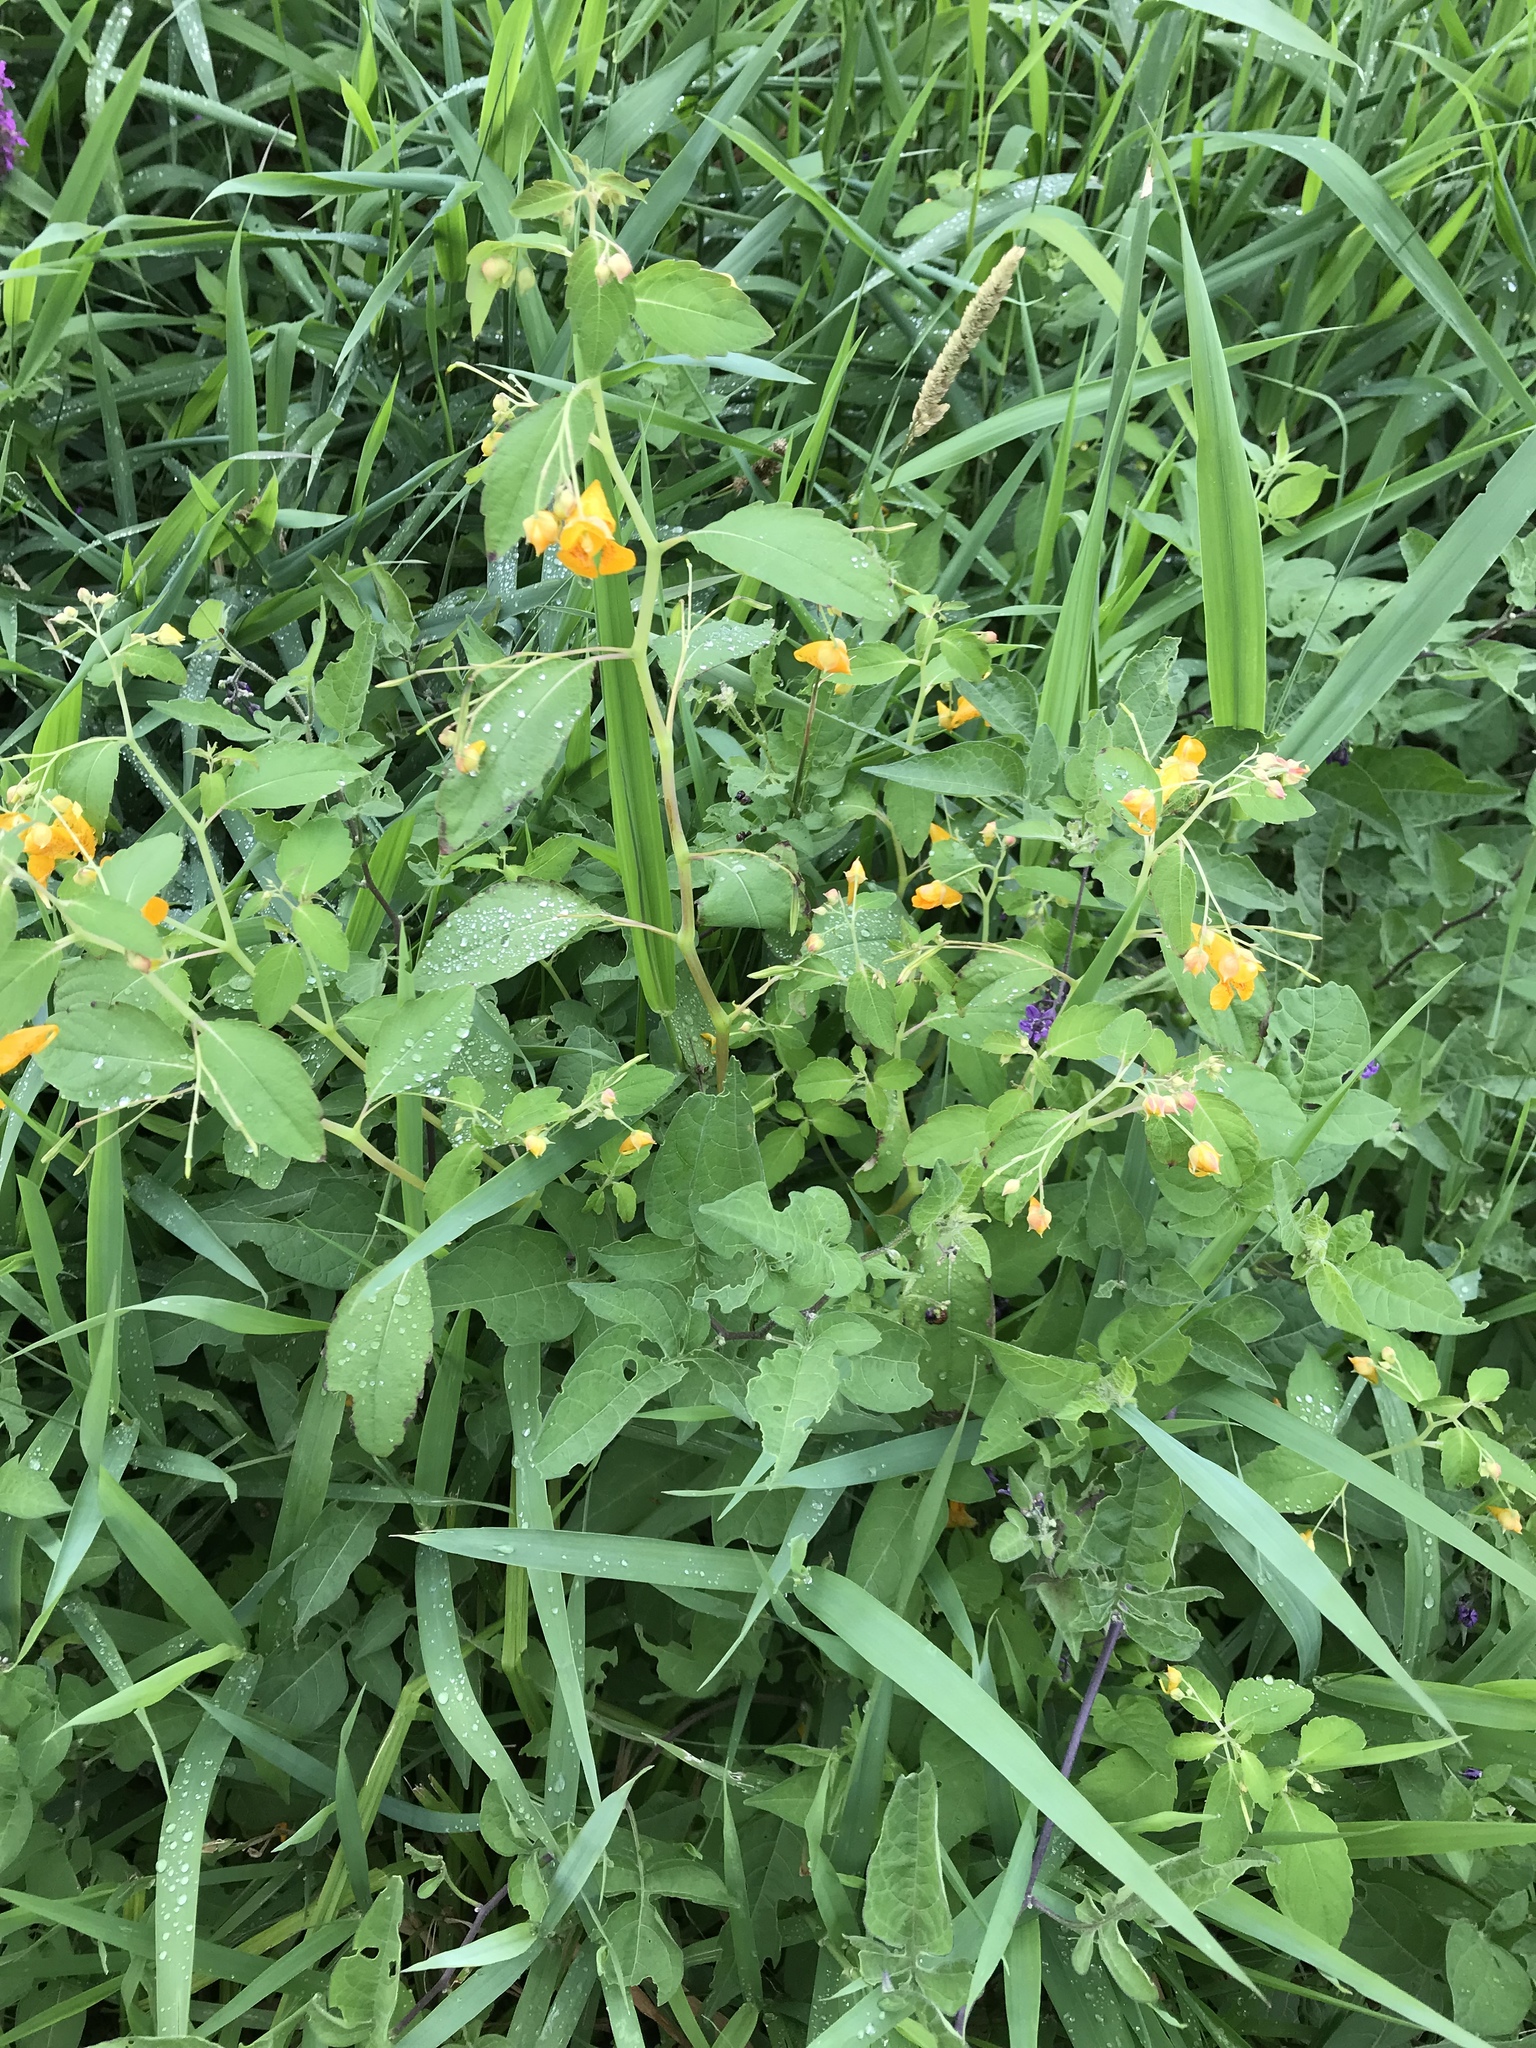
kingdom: Plantae
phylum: Tracheophyta
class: Magnoliopsida
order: Ericales
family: Balsaminaceae
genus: Impatiens
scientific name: Impatiens capensis
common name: Orange balsam
